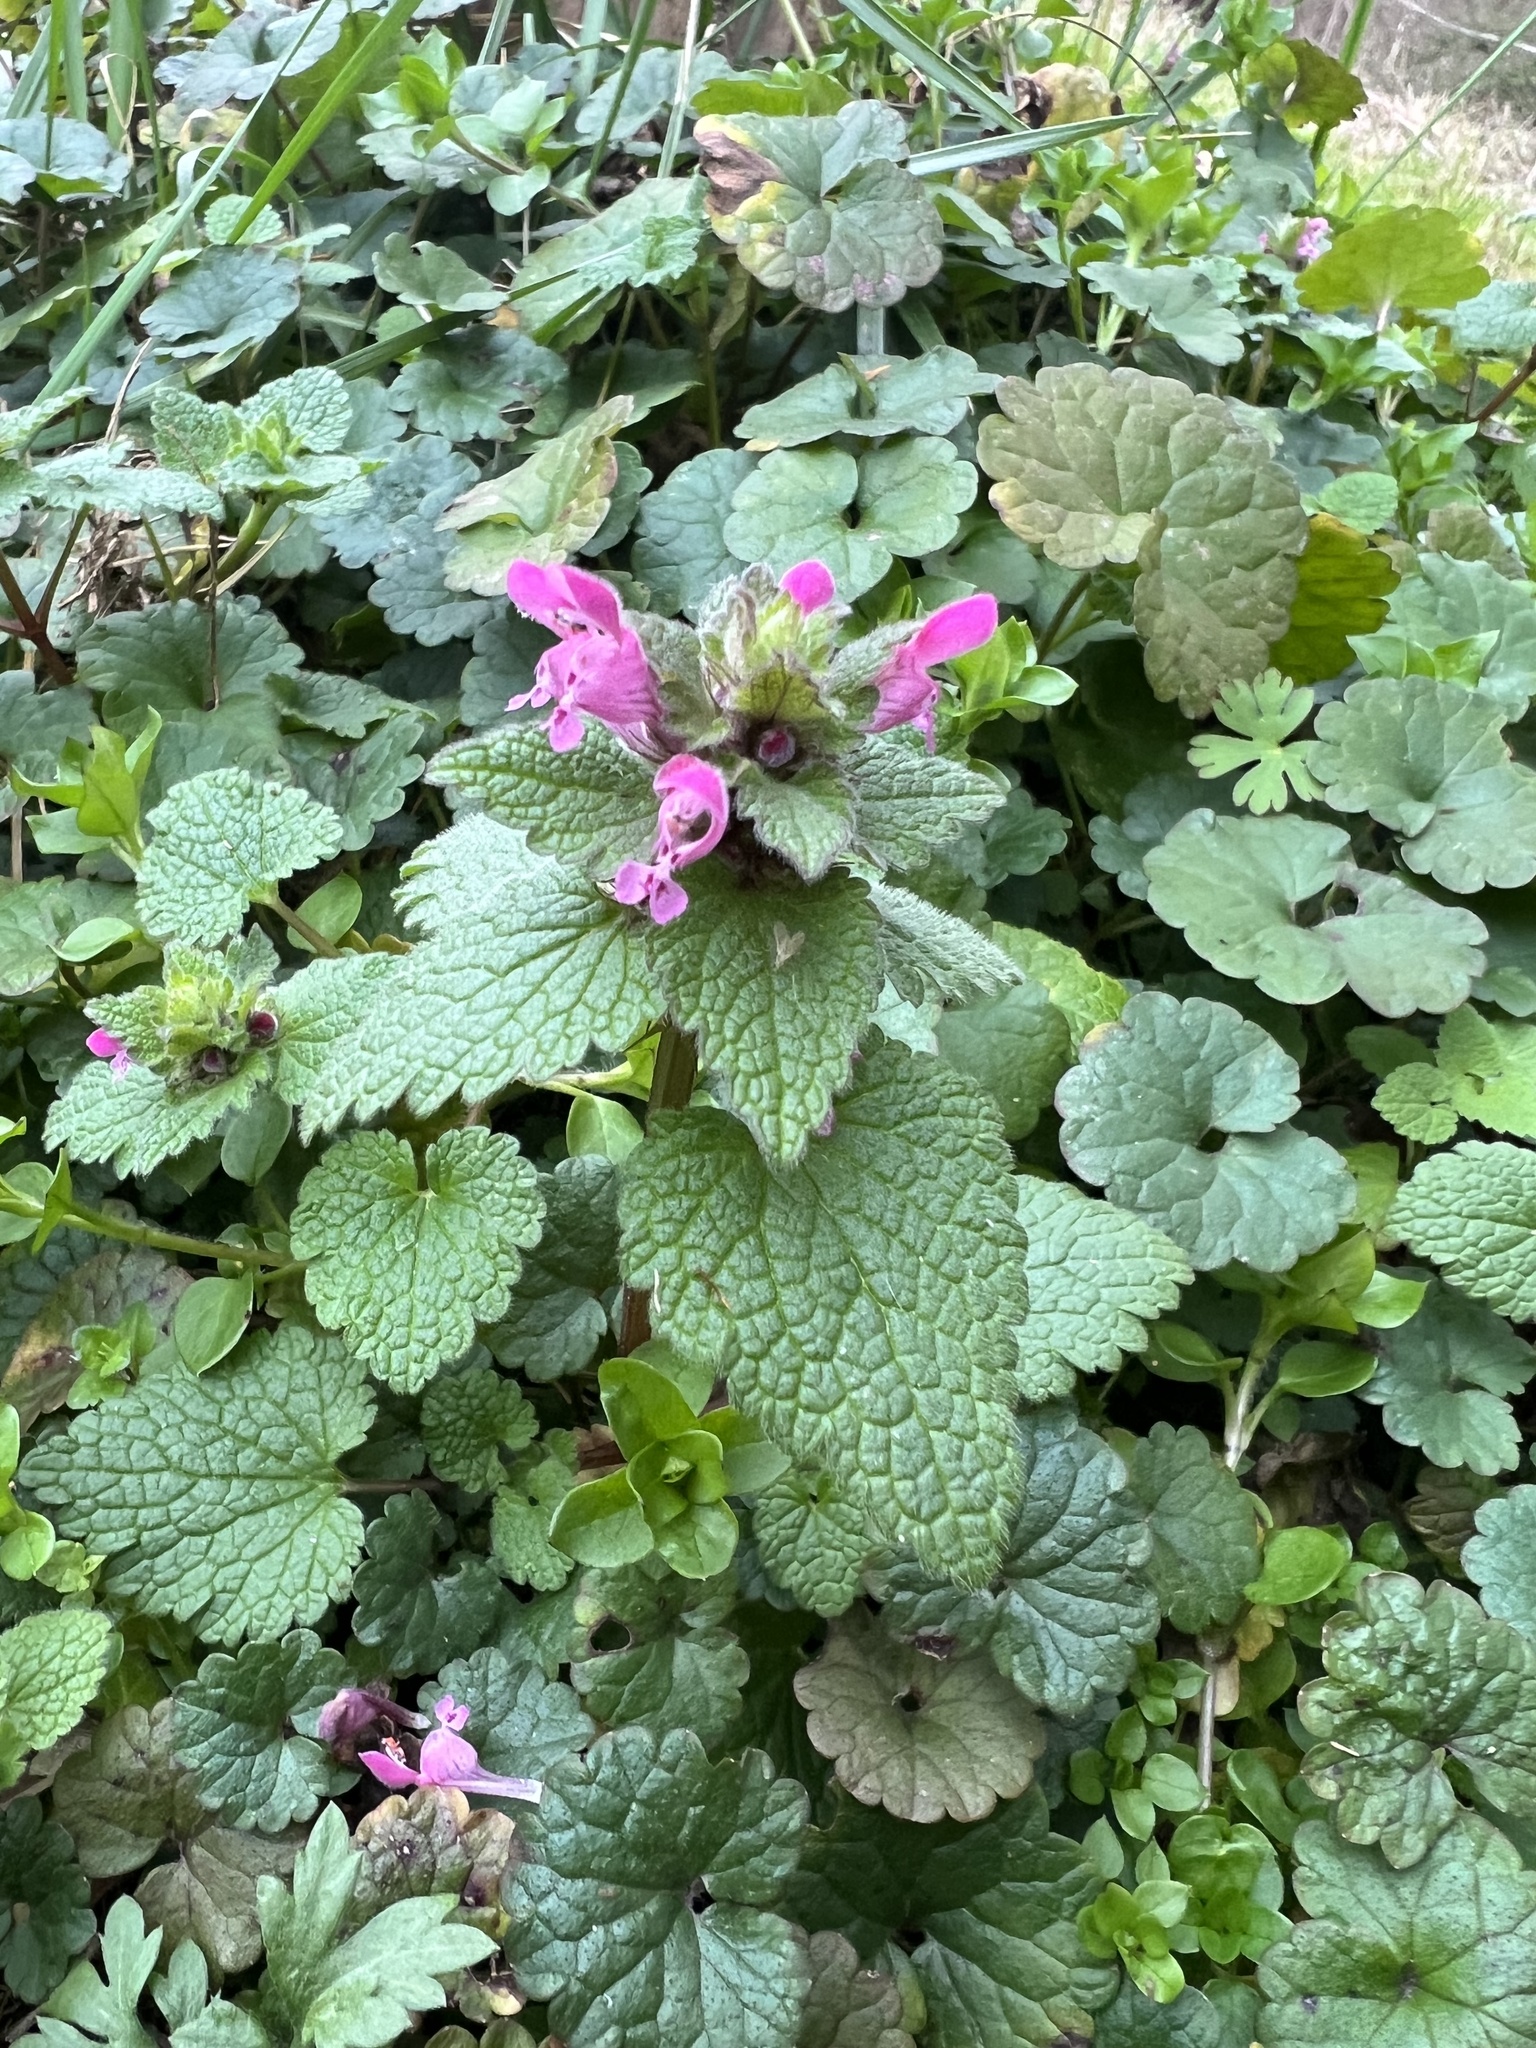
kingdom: Plantae
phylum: Tracheophyta
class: Magnoliopsida
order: Lamiales
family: Lamiaceae
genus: Lamium
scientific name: Lamium purpureum
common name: Red dead-nettle
